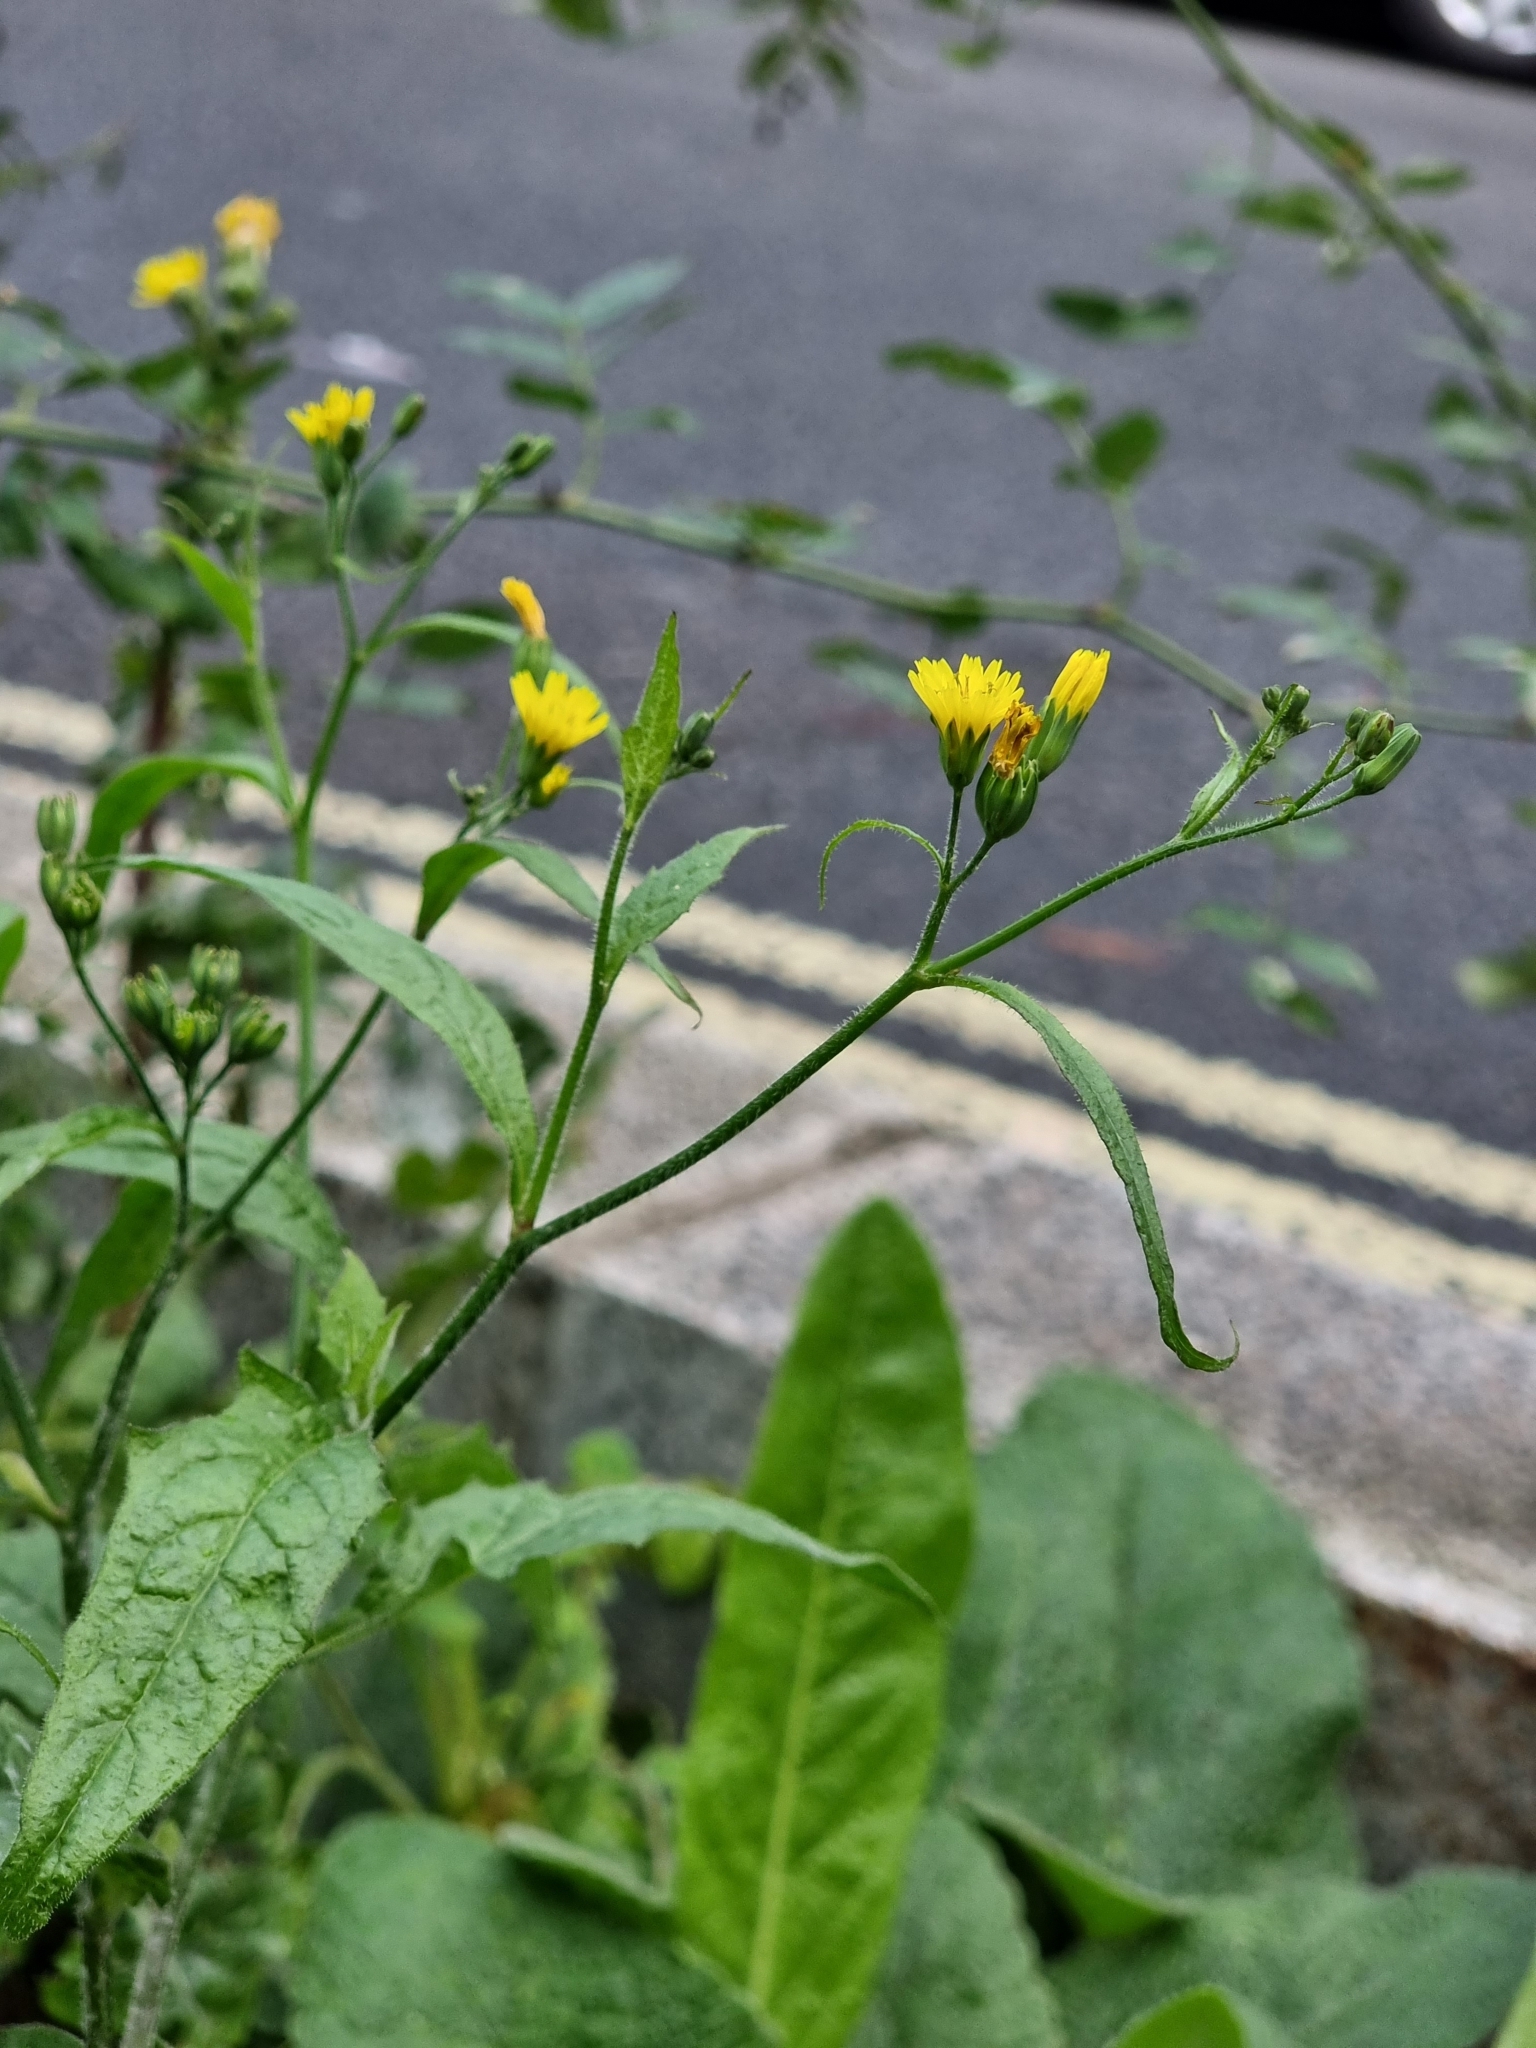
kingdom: Plantae
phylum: Tracheophyta
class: Magnoliopsida
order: Asterales
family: Asteraceae
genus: Lapsana
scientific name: Lapsana communis
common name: Nipplewort
